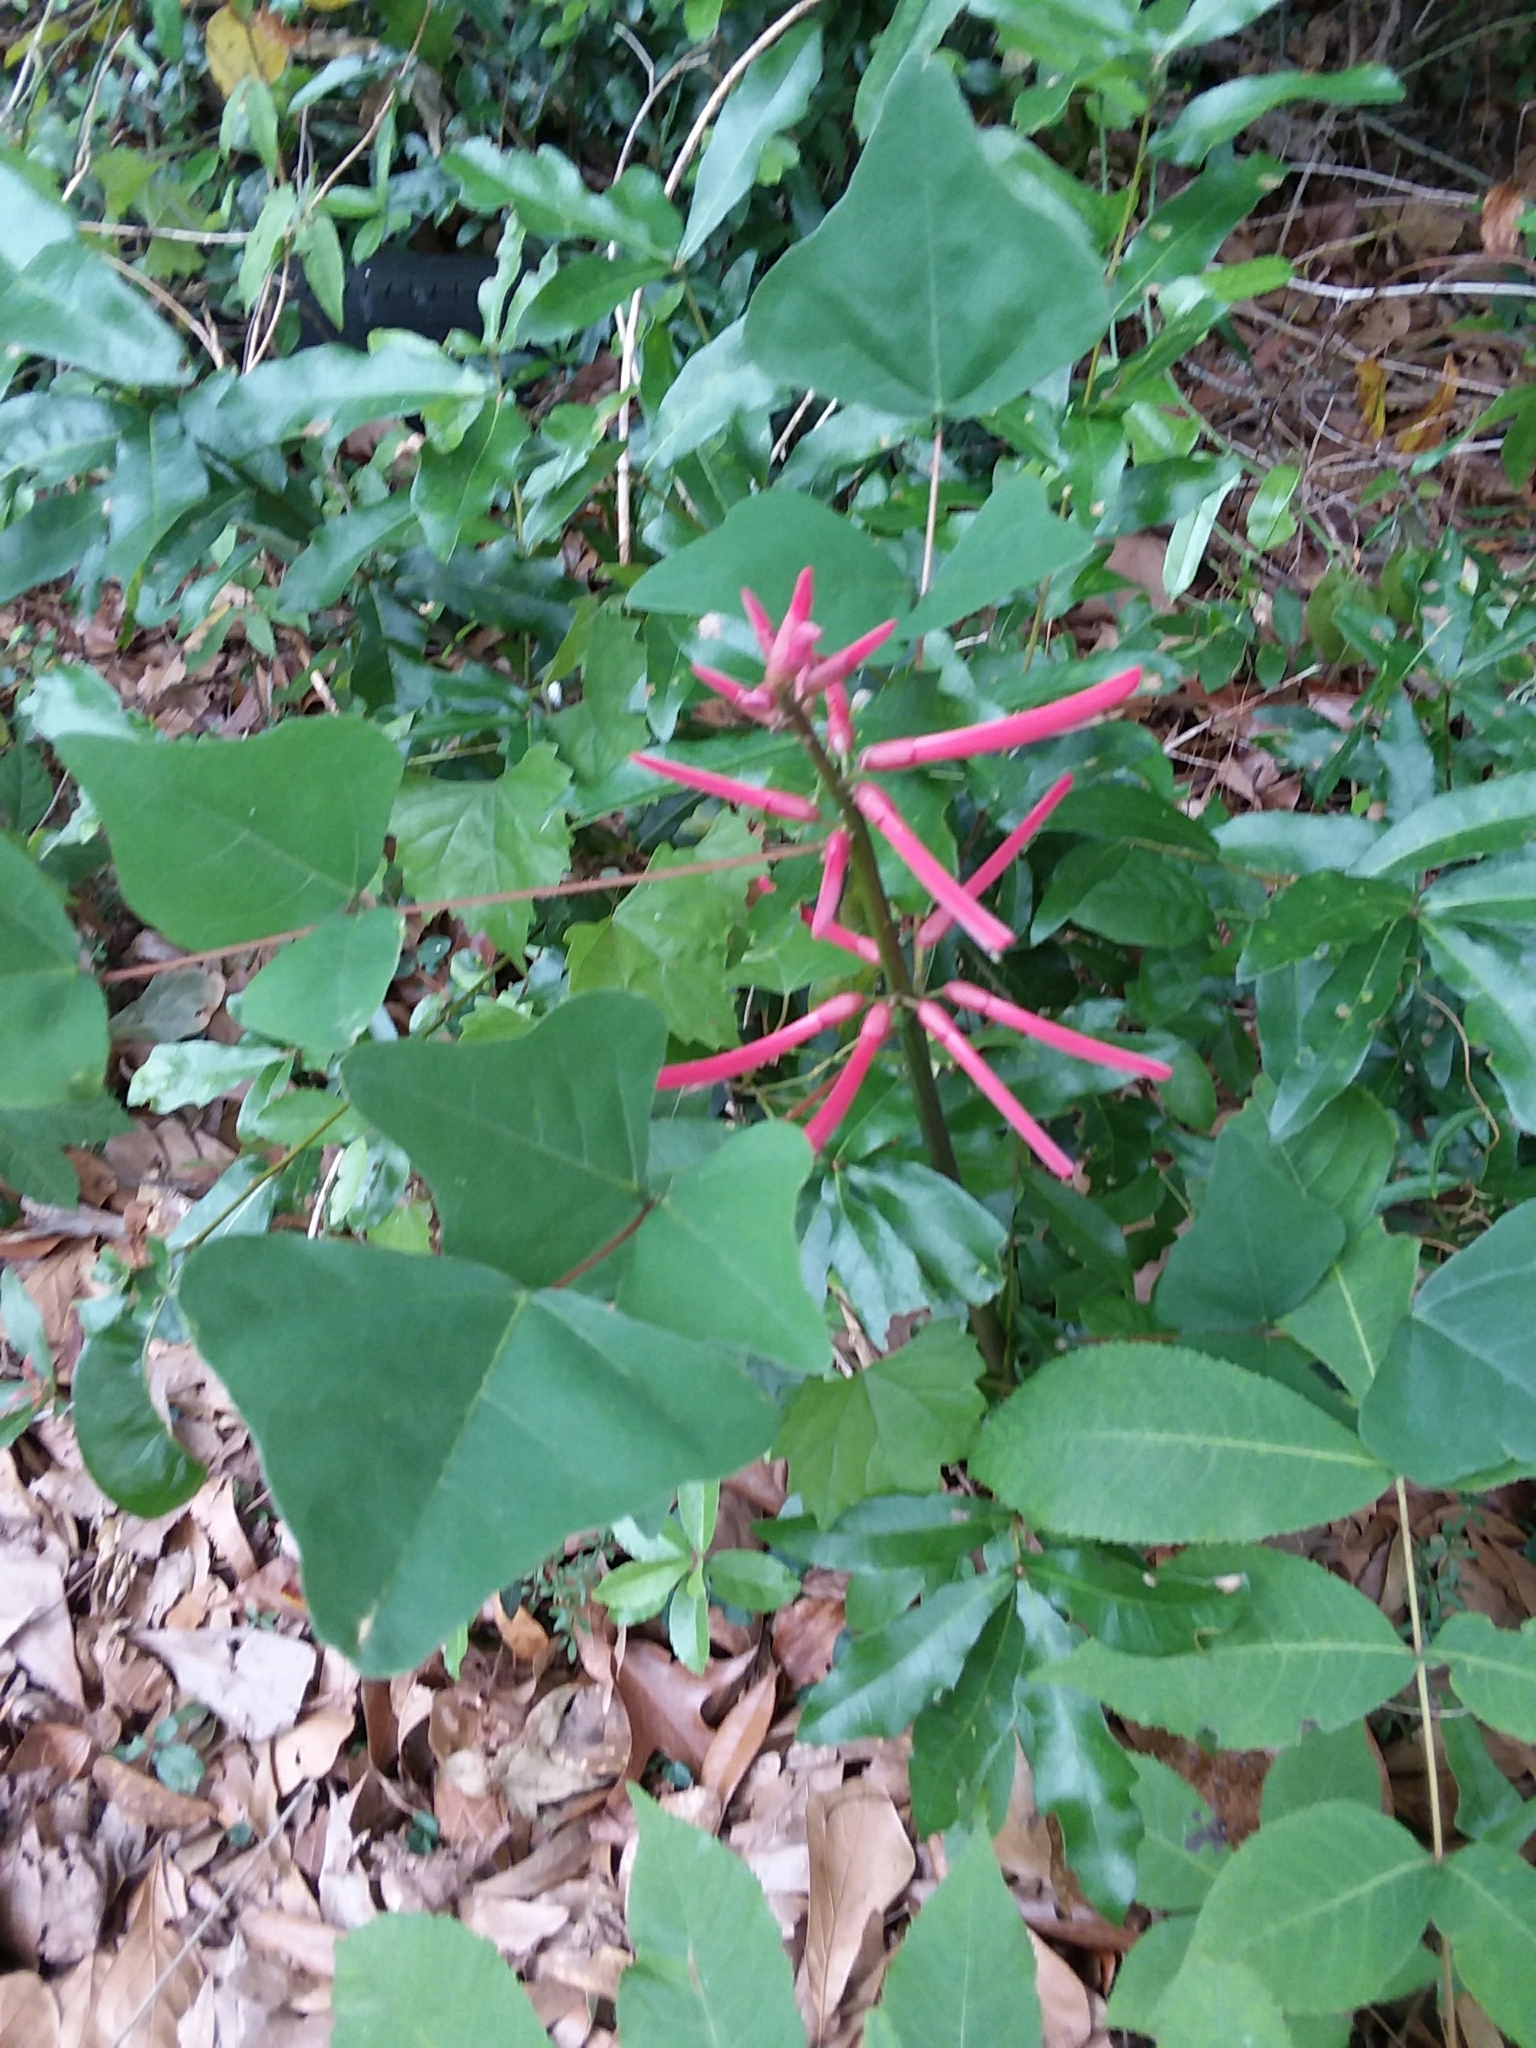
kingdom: Plantae
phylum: Tracheophyta
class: Magnoliopsida
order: Fabales
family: Fabaceae
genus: Erythrina
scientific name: Erythrina herbacea
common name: Coral-bean
